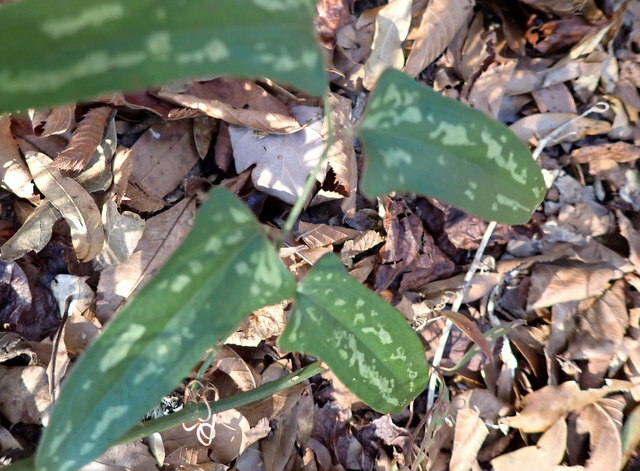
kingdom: Plantae
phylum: Tracheophyta
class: Liliopsida
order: Liliales
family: Smilacaceae
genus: Smilax
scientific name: Smilax bona-nox
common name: Catbrier
